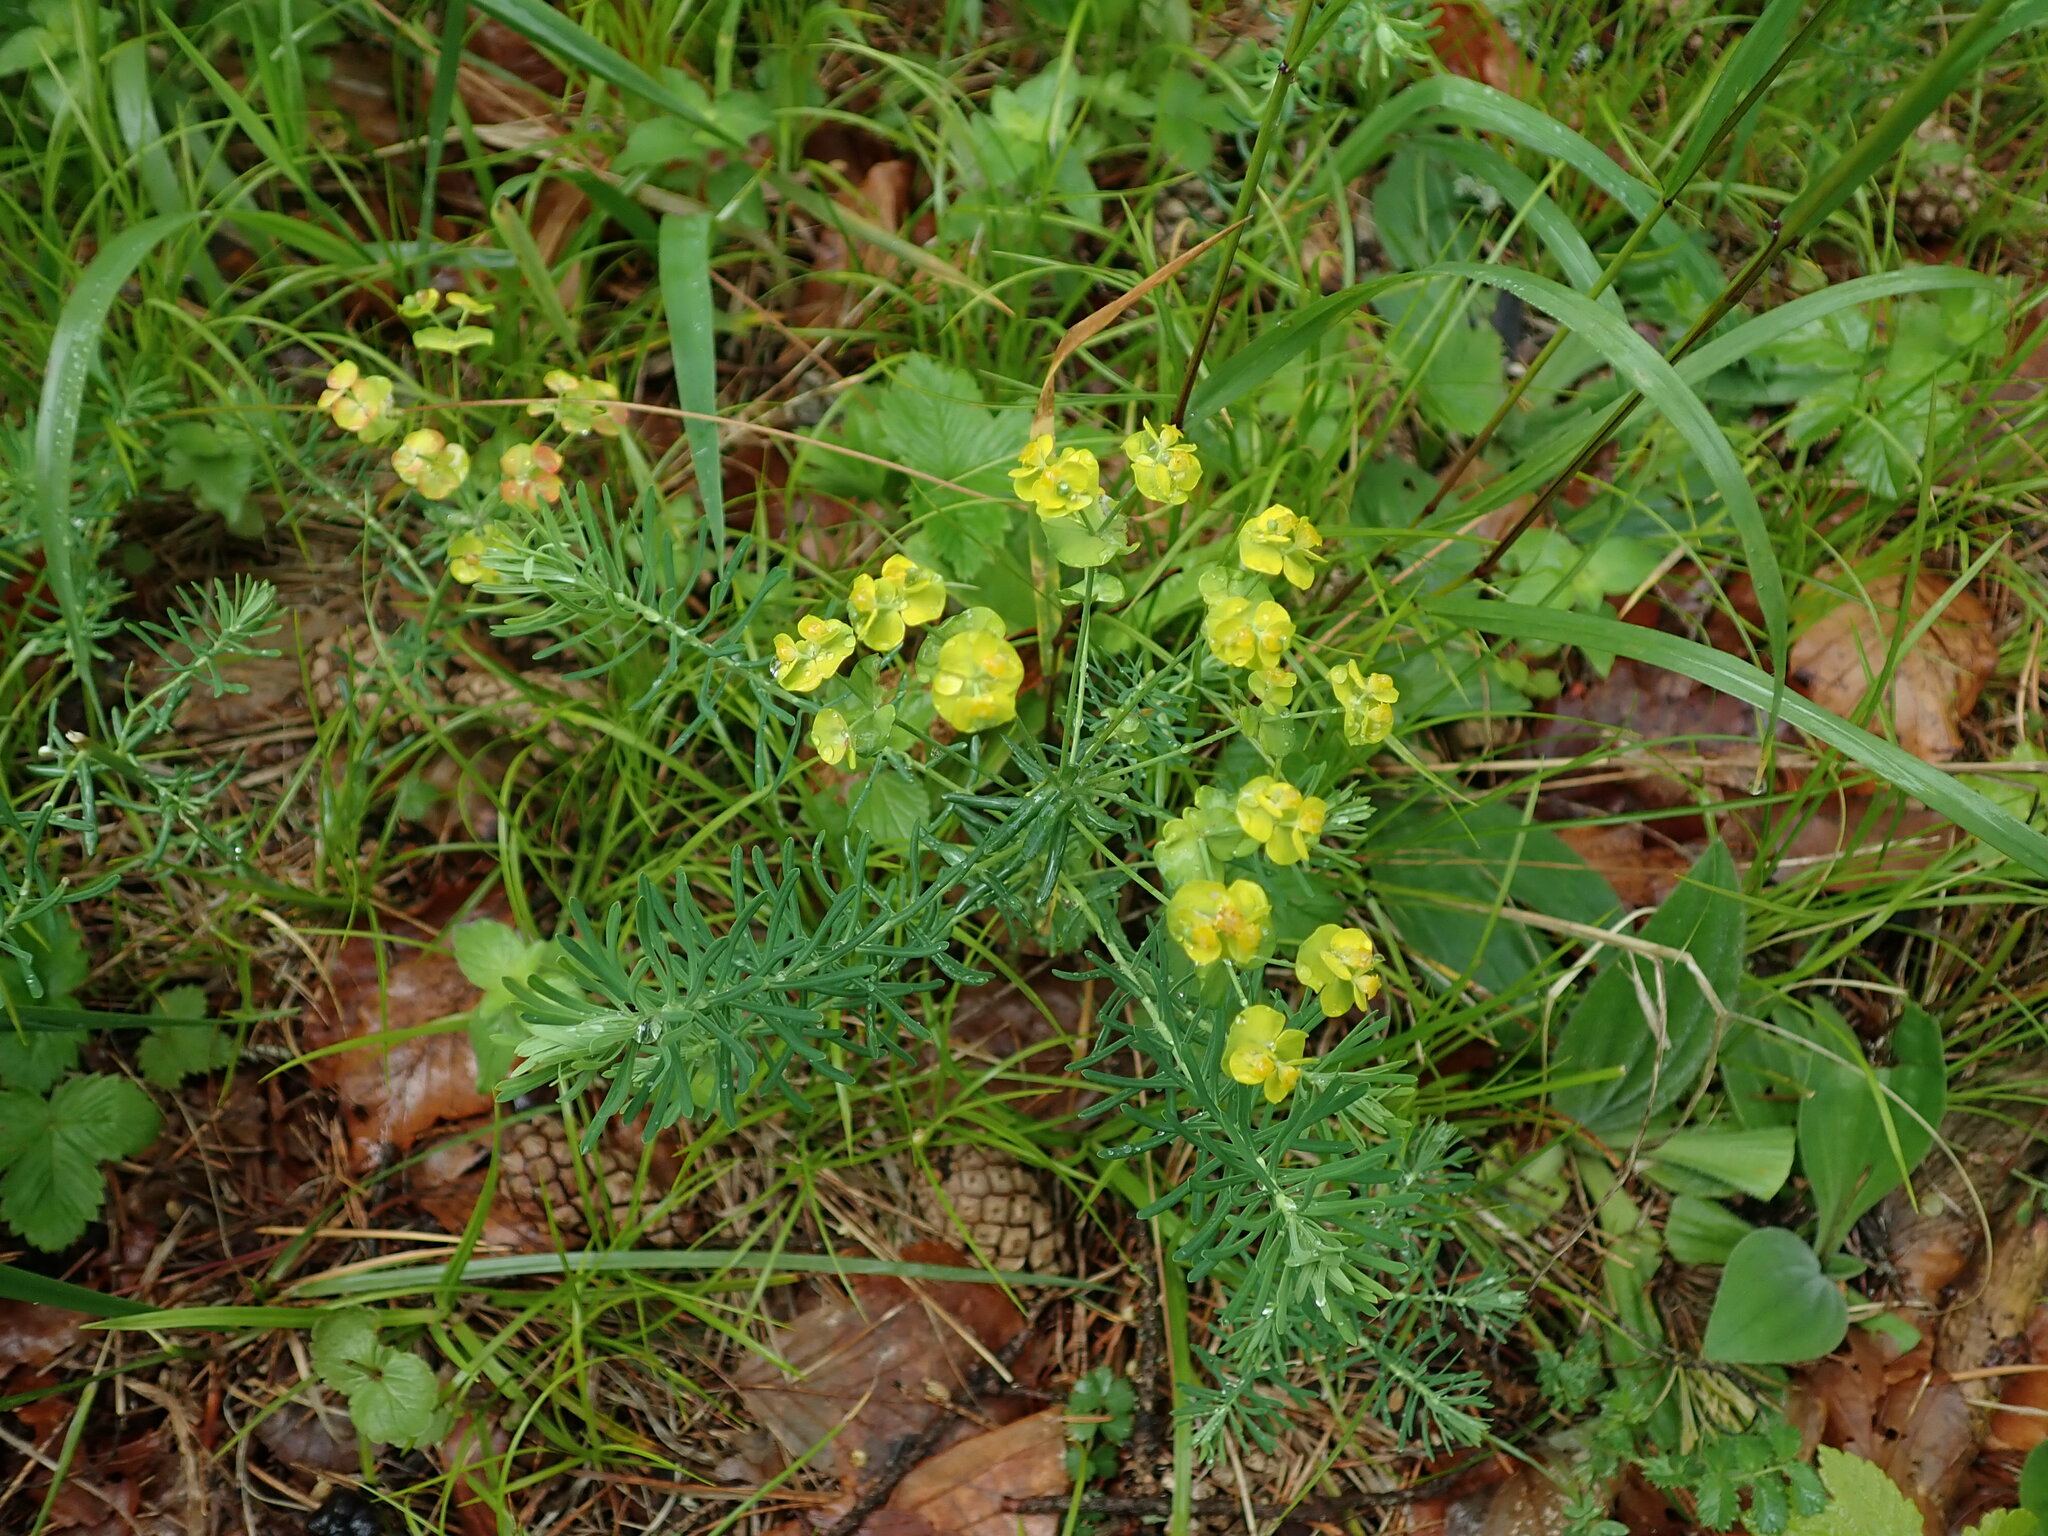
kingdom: Plantae
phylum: Tracheophyta
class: Magnoliopsida
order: Malpighiales
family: Euphorbiaceae
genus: Euphorbia
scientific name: Euphorbia cyparissias
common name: Cypress spurge
